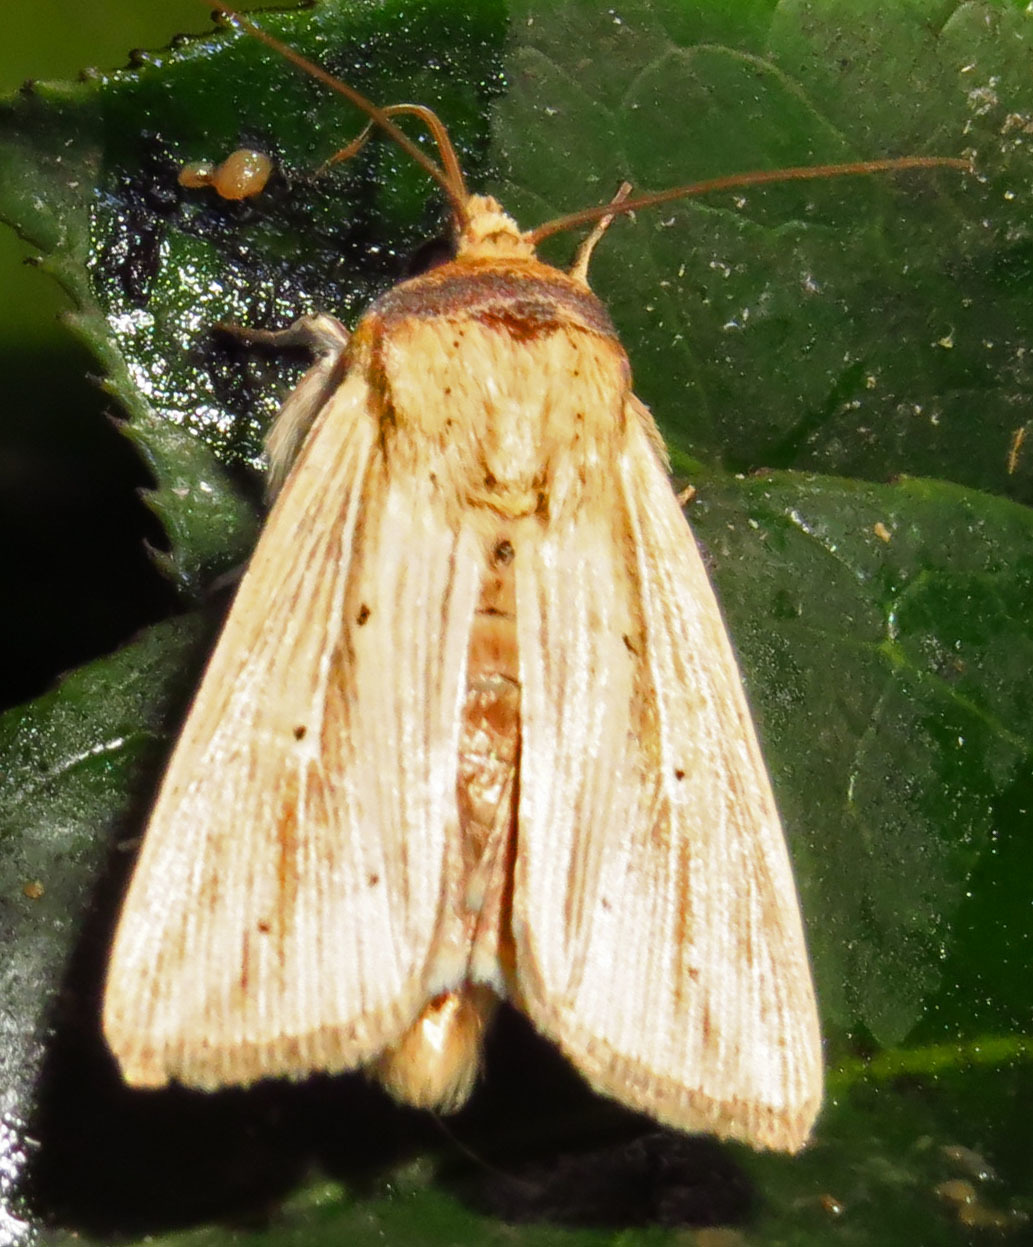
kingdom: Animalia
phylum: Arthropoda
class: Insecta
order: Lepidoptera
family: Noctuidae
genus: Leucania
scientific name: Leucania adjuta
